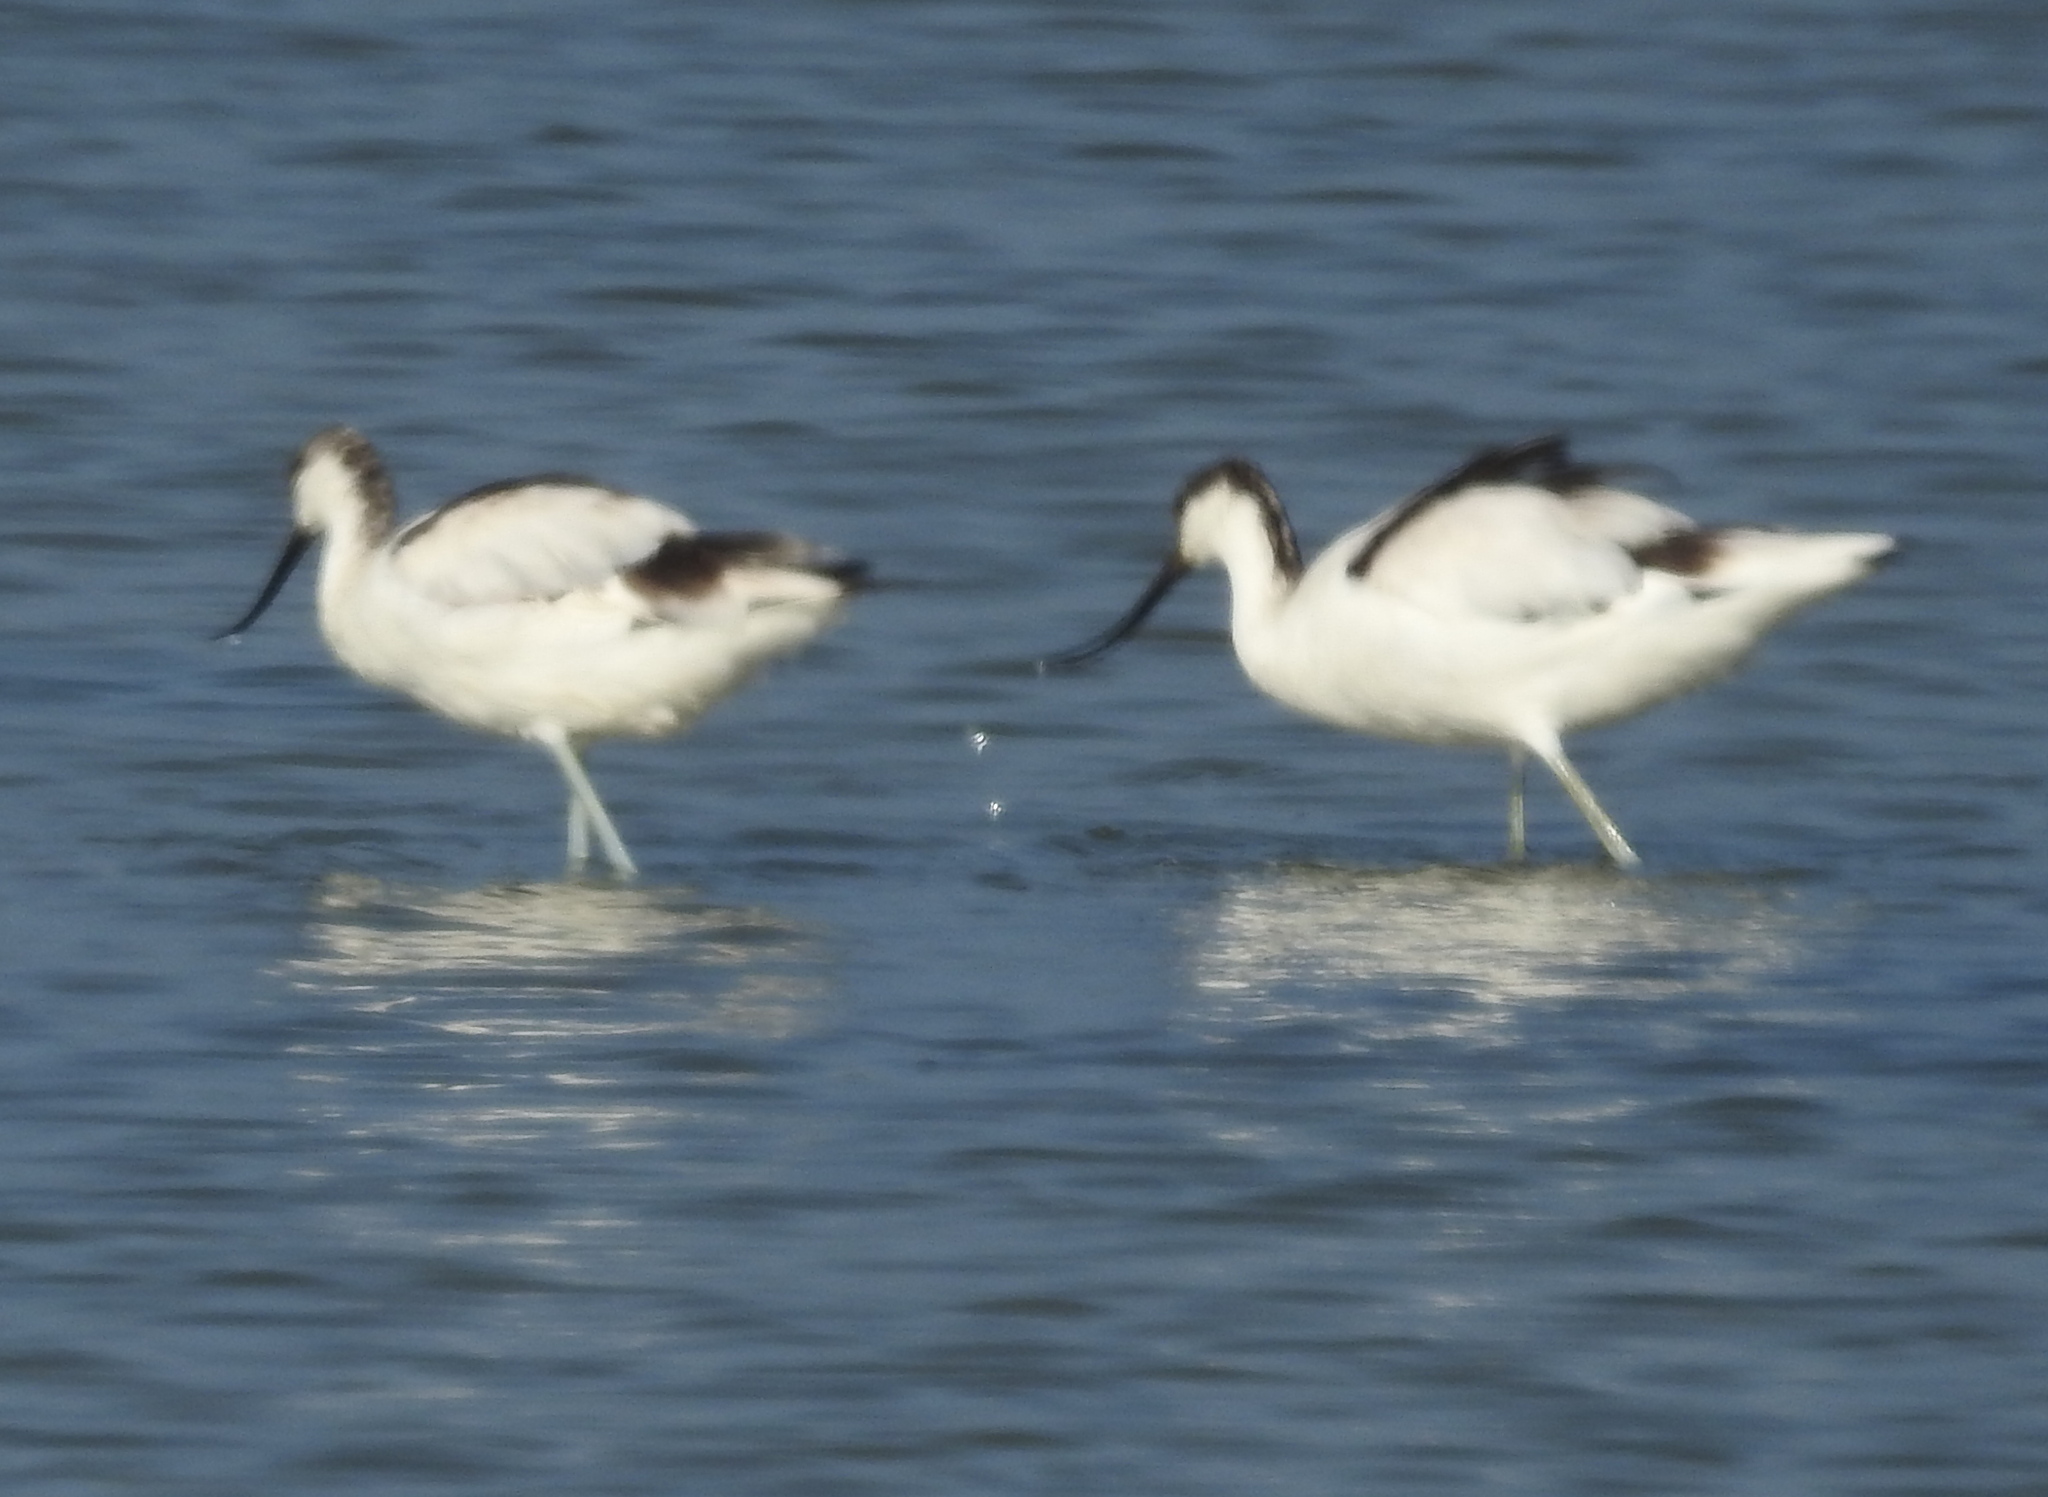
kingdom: Animalia
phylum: Chordata
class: Aves
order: Charadriiformes
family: Recurvirostridae
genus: Recurvirostra
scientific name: Recurvirostra avosetta
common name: Pied avocet
